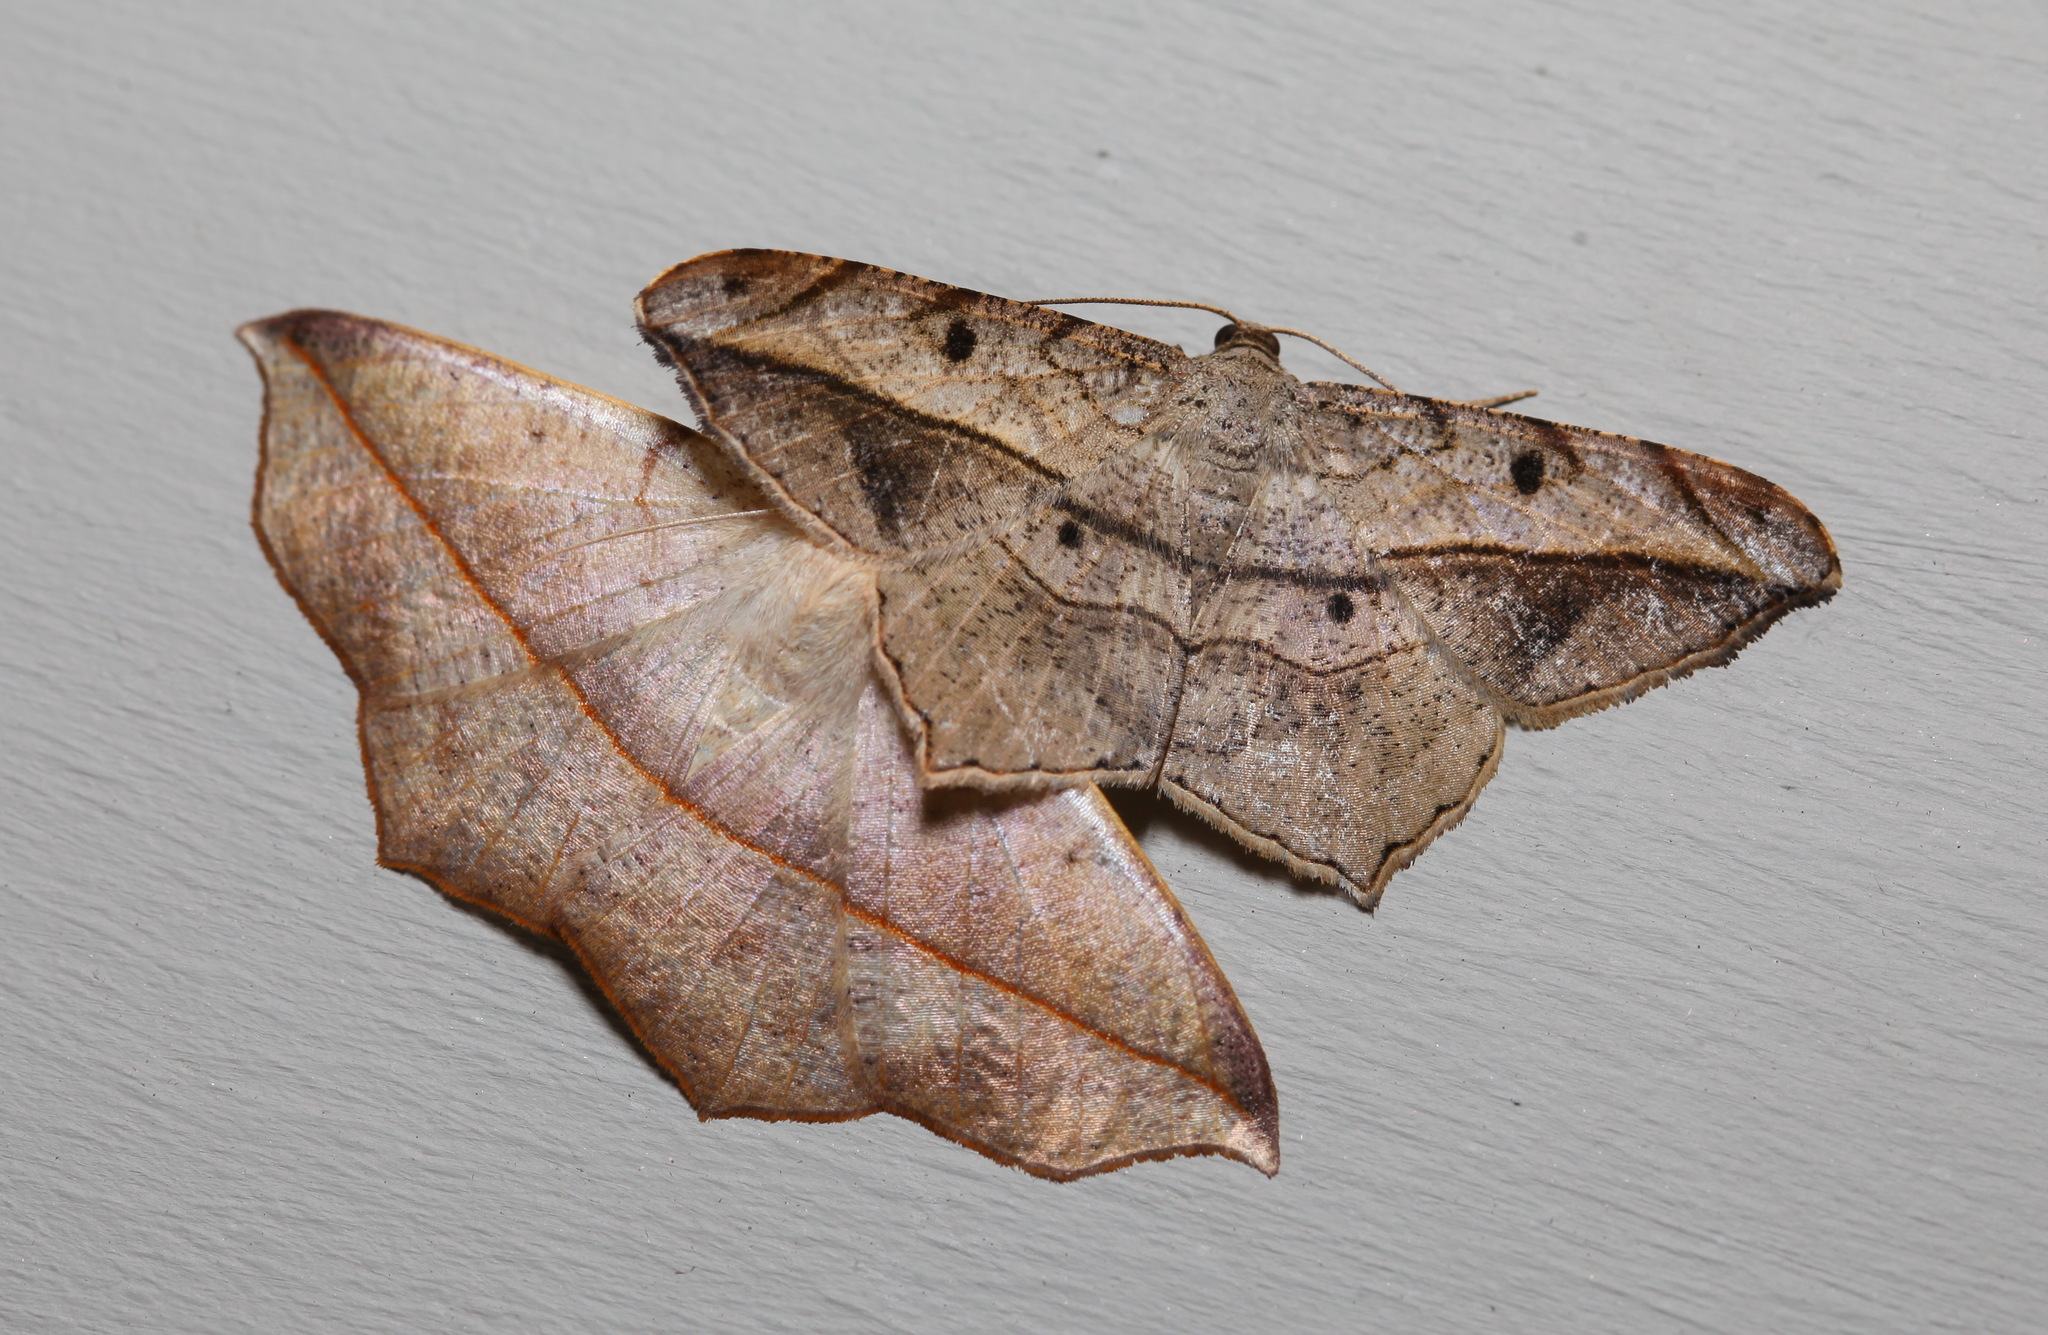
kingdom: Animalia
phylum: Arthropoda
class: Insecta
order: Lepidoptera
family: Geometridae
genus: Chiasmia
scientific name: Chiasmia simplicilinea
